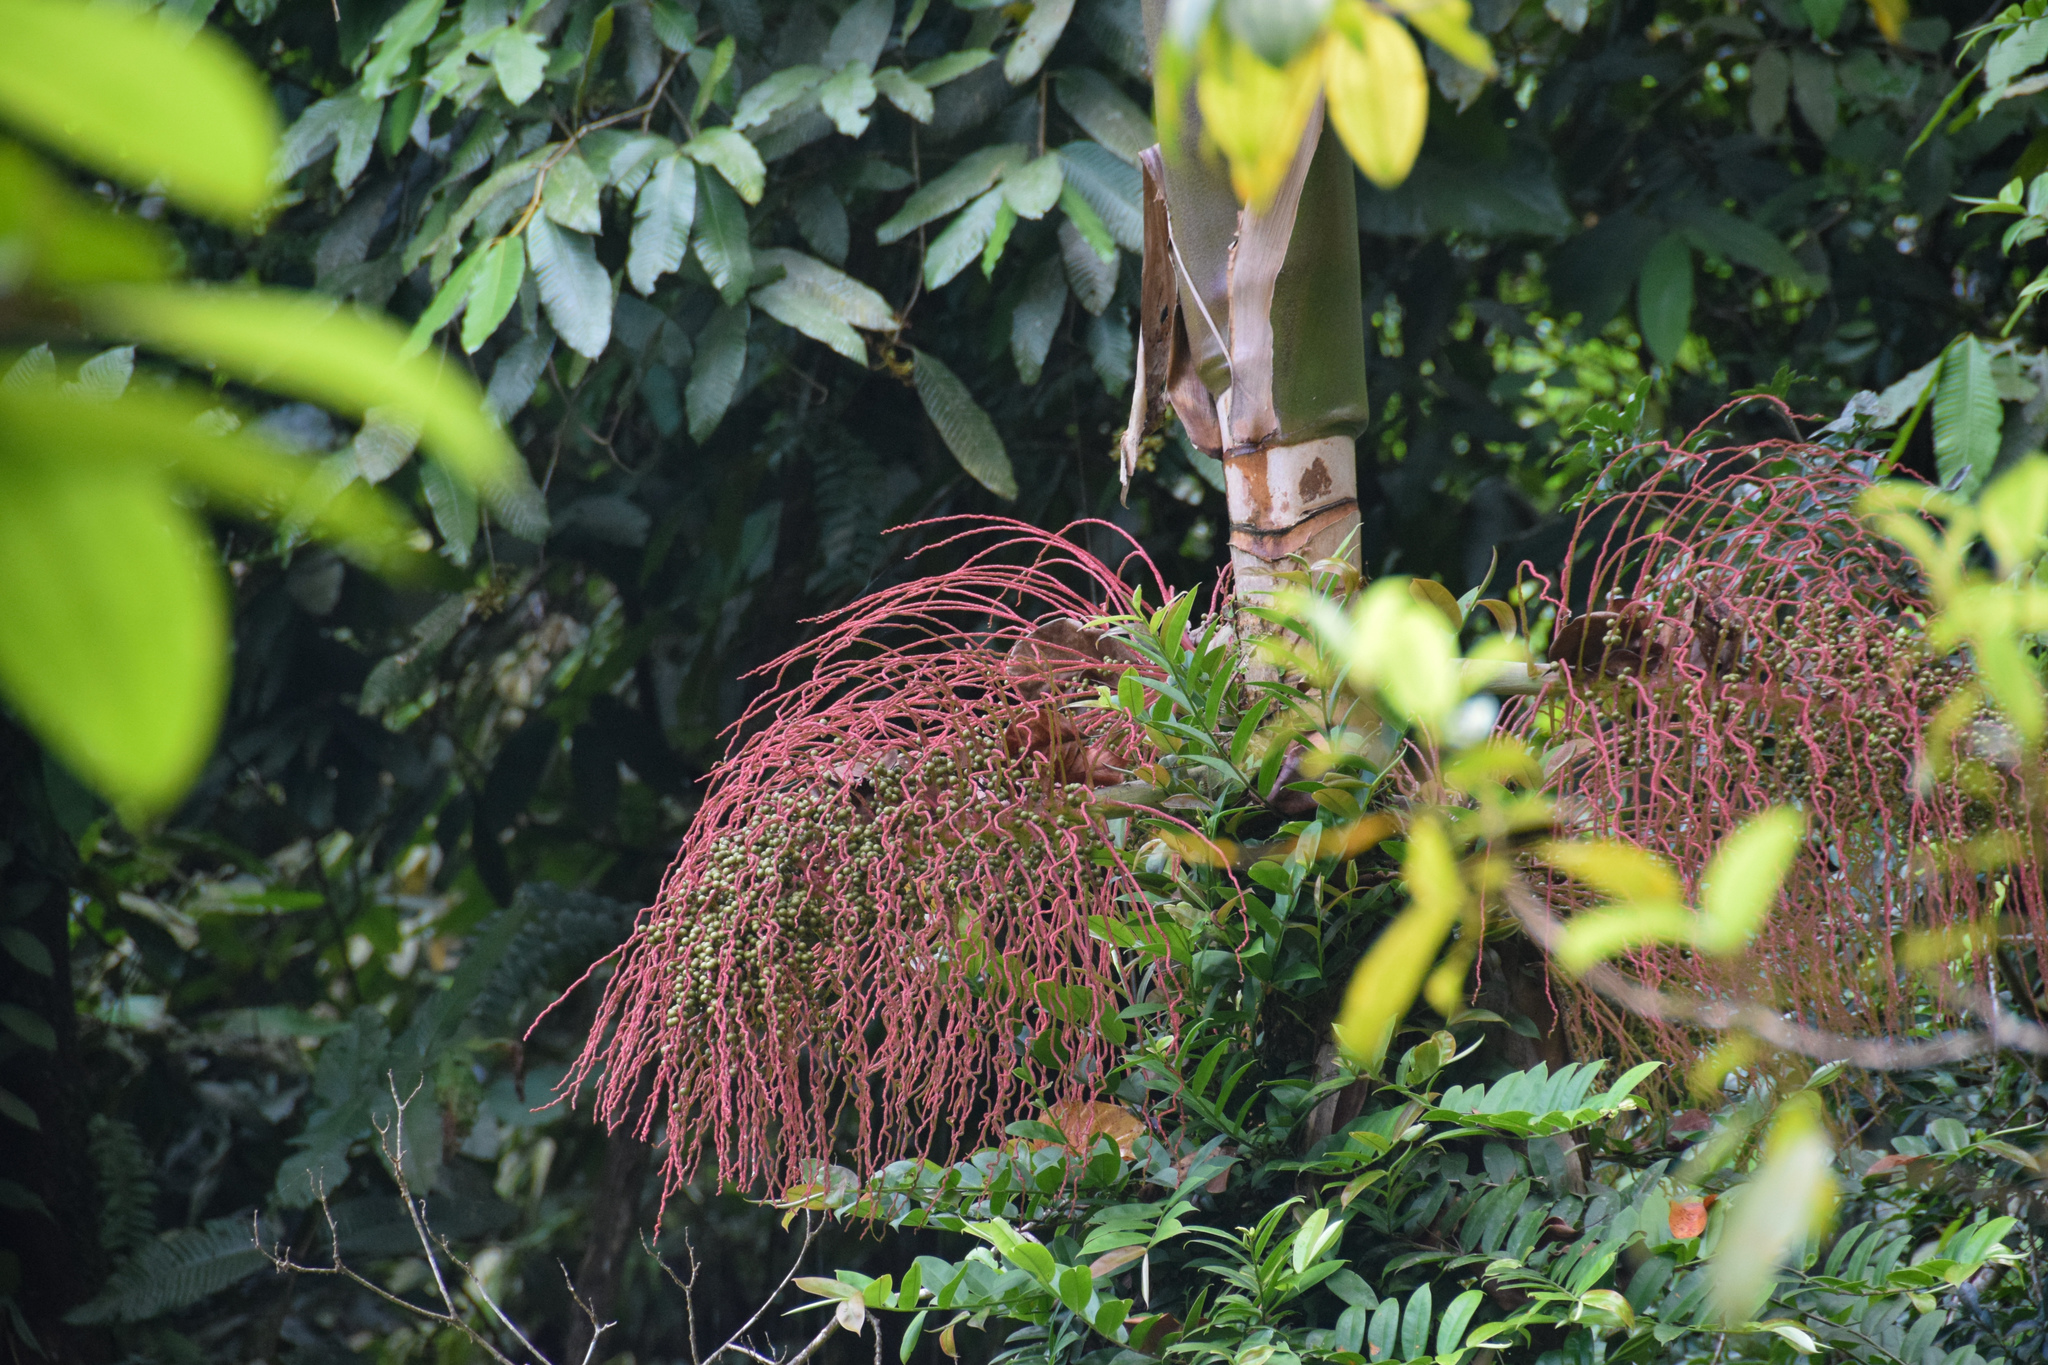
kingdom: Plantae
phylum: Tracheophyta
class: Liliopsida
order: Arecales
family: Arecaceae
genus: Prestoea
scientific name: Prestoea acuminata
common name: Sierran palm
